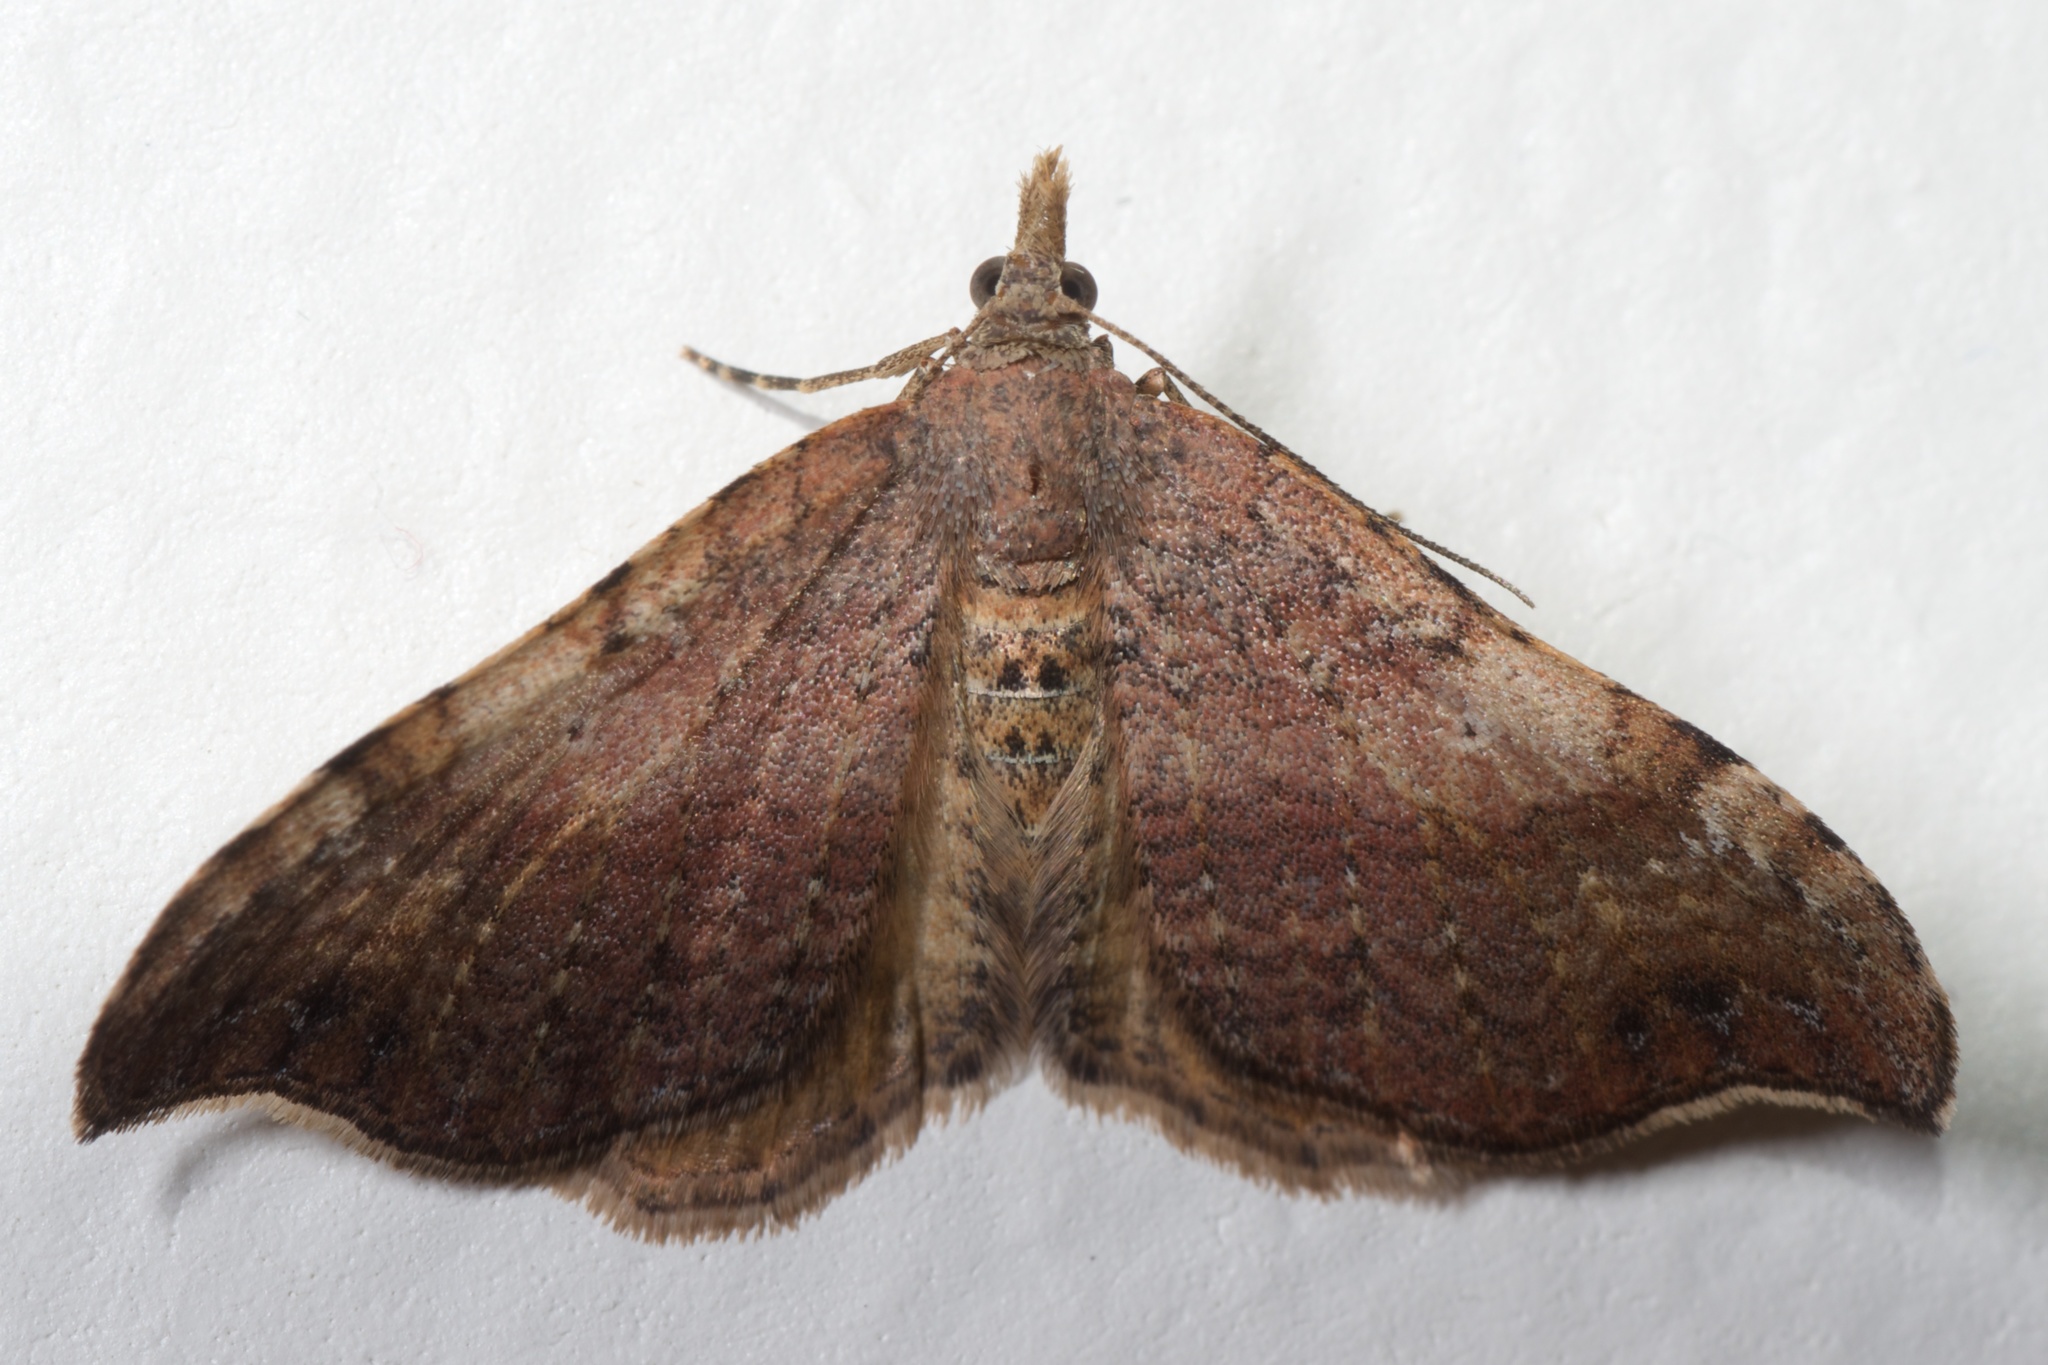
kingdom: Animalia
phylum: Arthropoda
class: Insecta
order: Lepidoptera
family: Geometridae
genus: Homodotis
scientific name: Homodotis megaspilata
